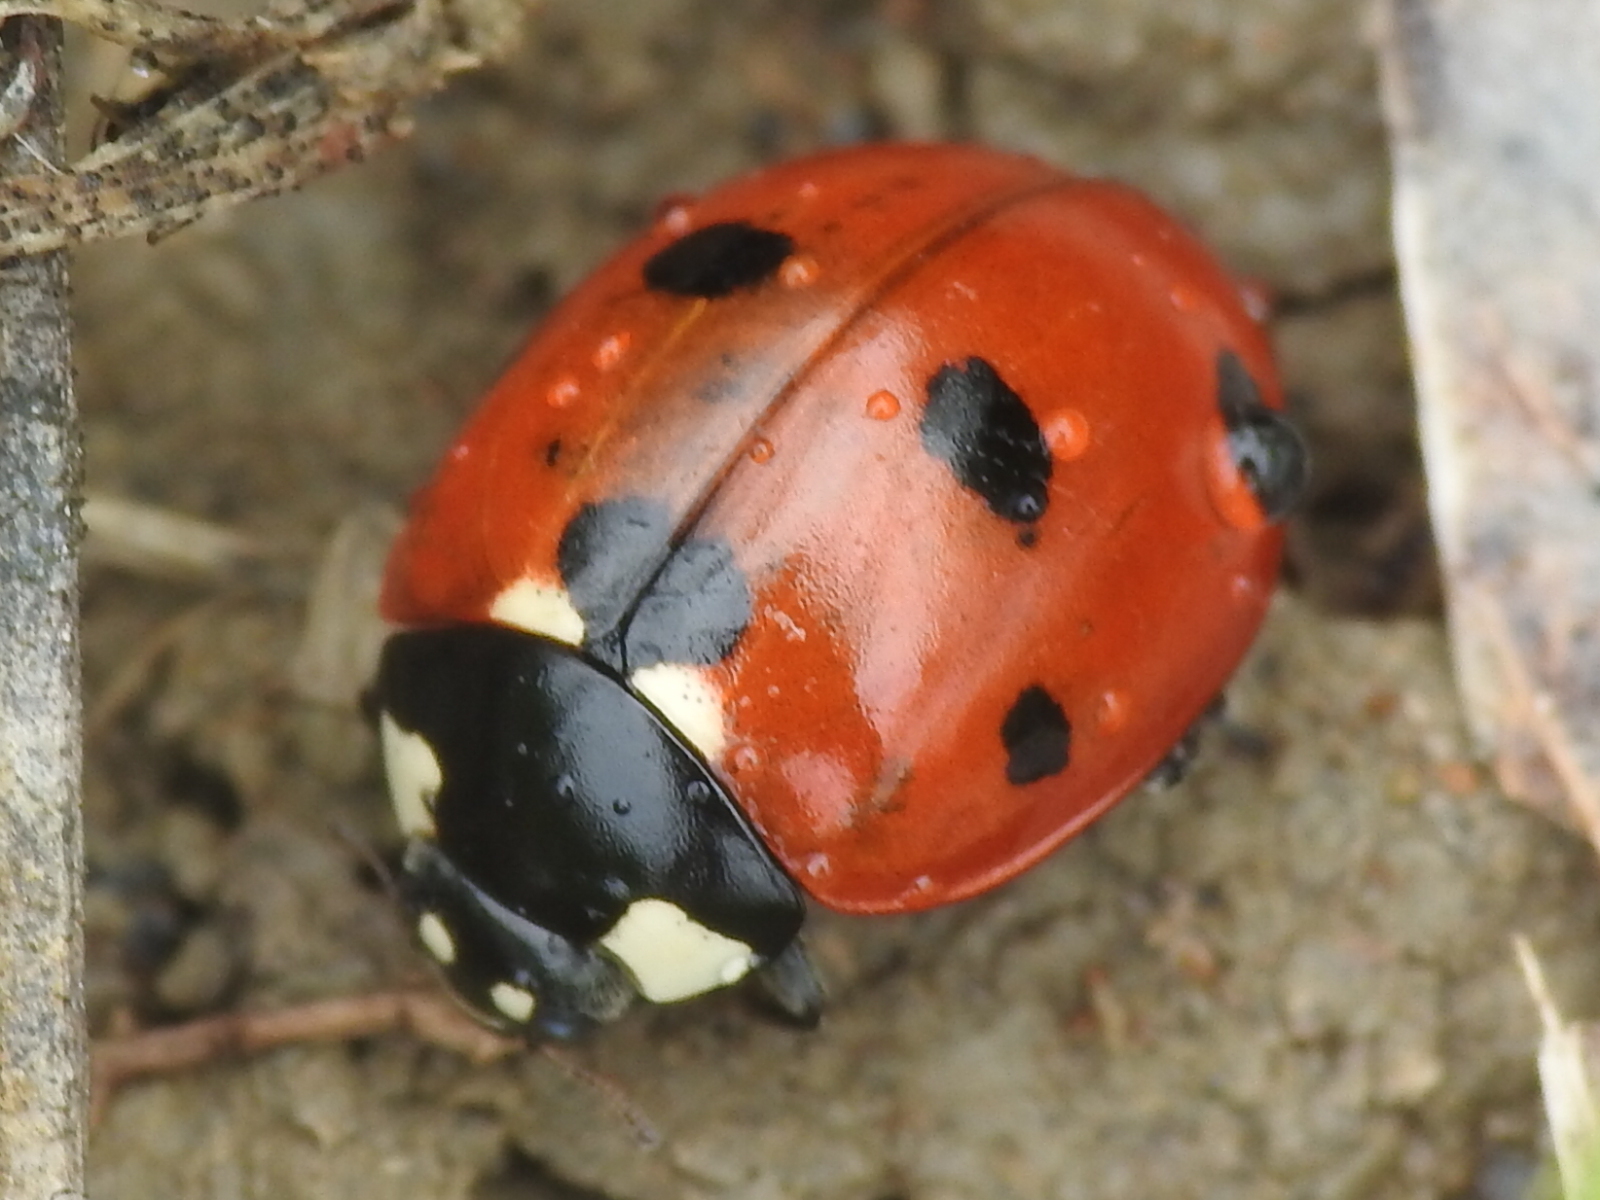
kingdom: Animalia
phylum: Arthropoda
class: Insecta
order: Coleoptera
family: Coccinellidae
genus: Coccinella
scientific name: Coccinella septempunctata
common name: Sevenspotted lady beetle
